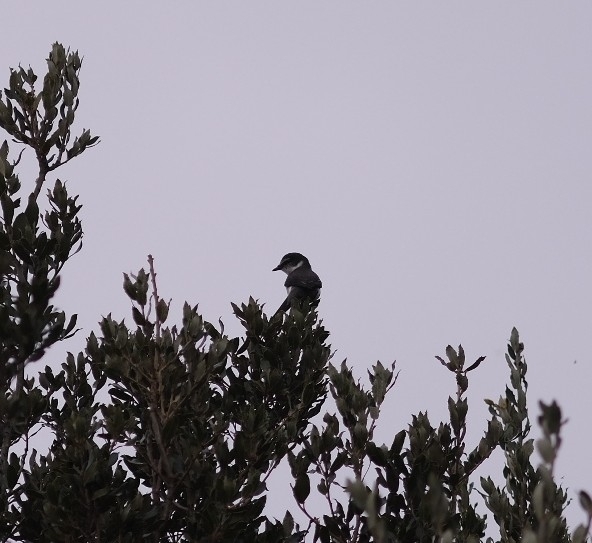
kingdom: Animalia
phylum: Chordata
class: Aves
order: Passeriformes
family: Campephagidae
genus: Pericrocotus
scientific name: Pericrocotus tegimae
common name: Ryukyu minivet
